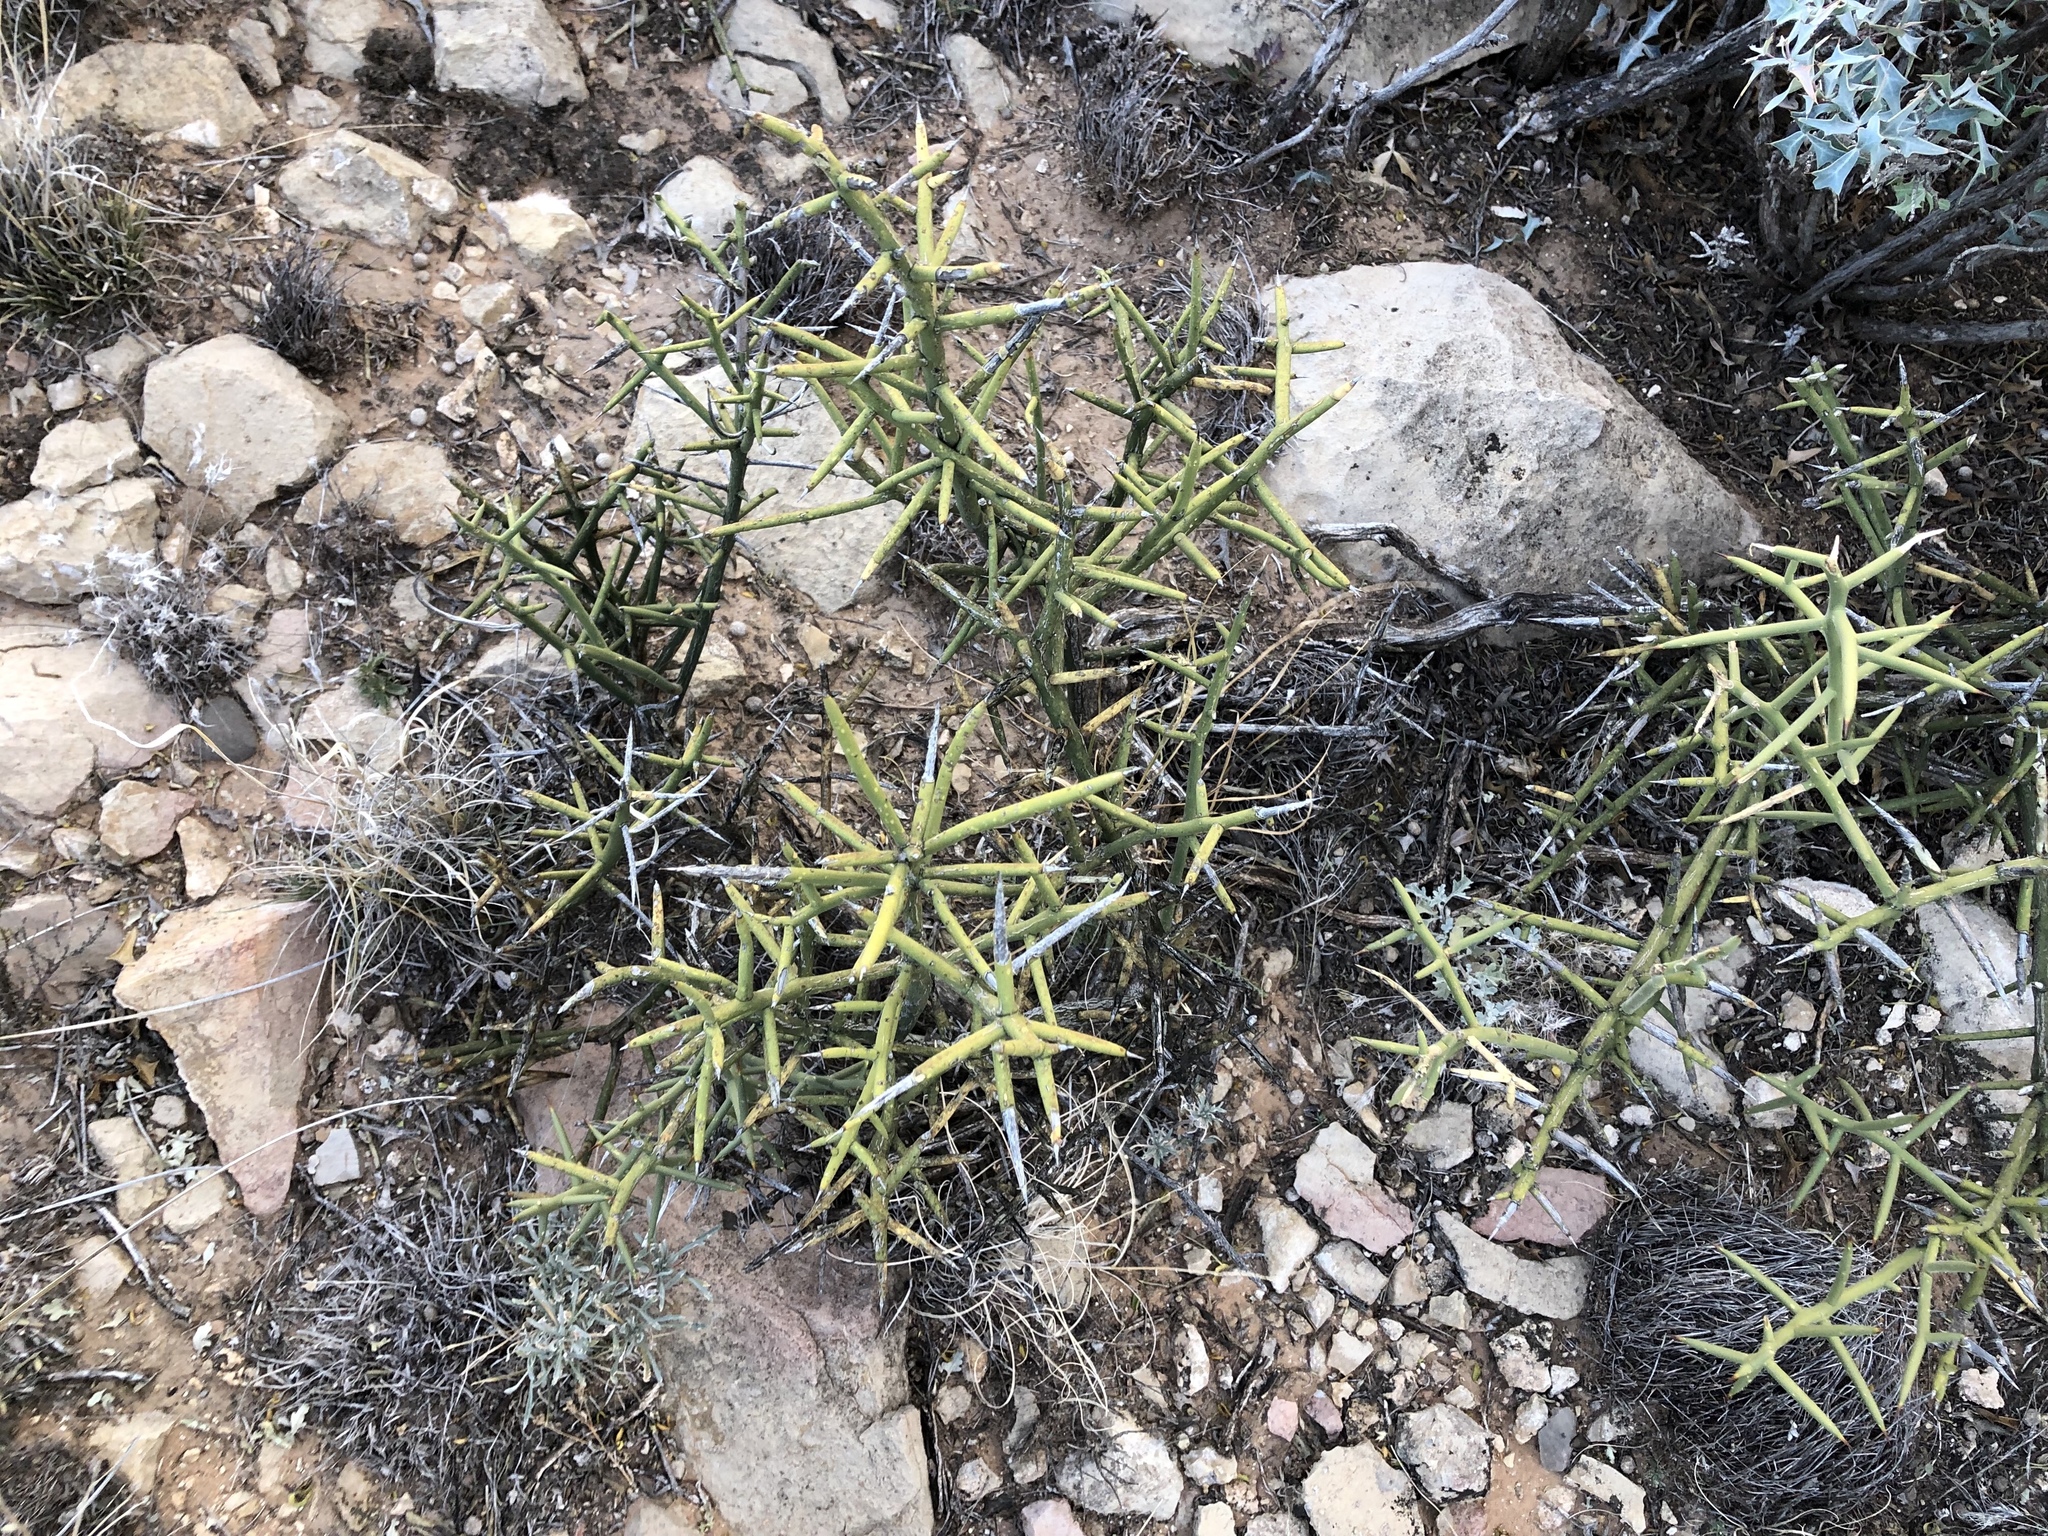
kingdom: Plantae
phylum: Tracheophyta
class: Magnoliopsida
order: Brassicales
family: Koeberliniaceae
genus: Koeberlinia
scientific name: Koeberlinia spinosa
